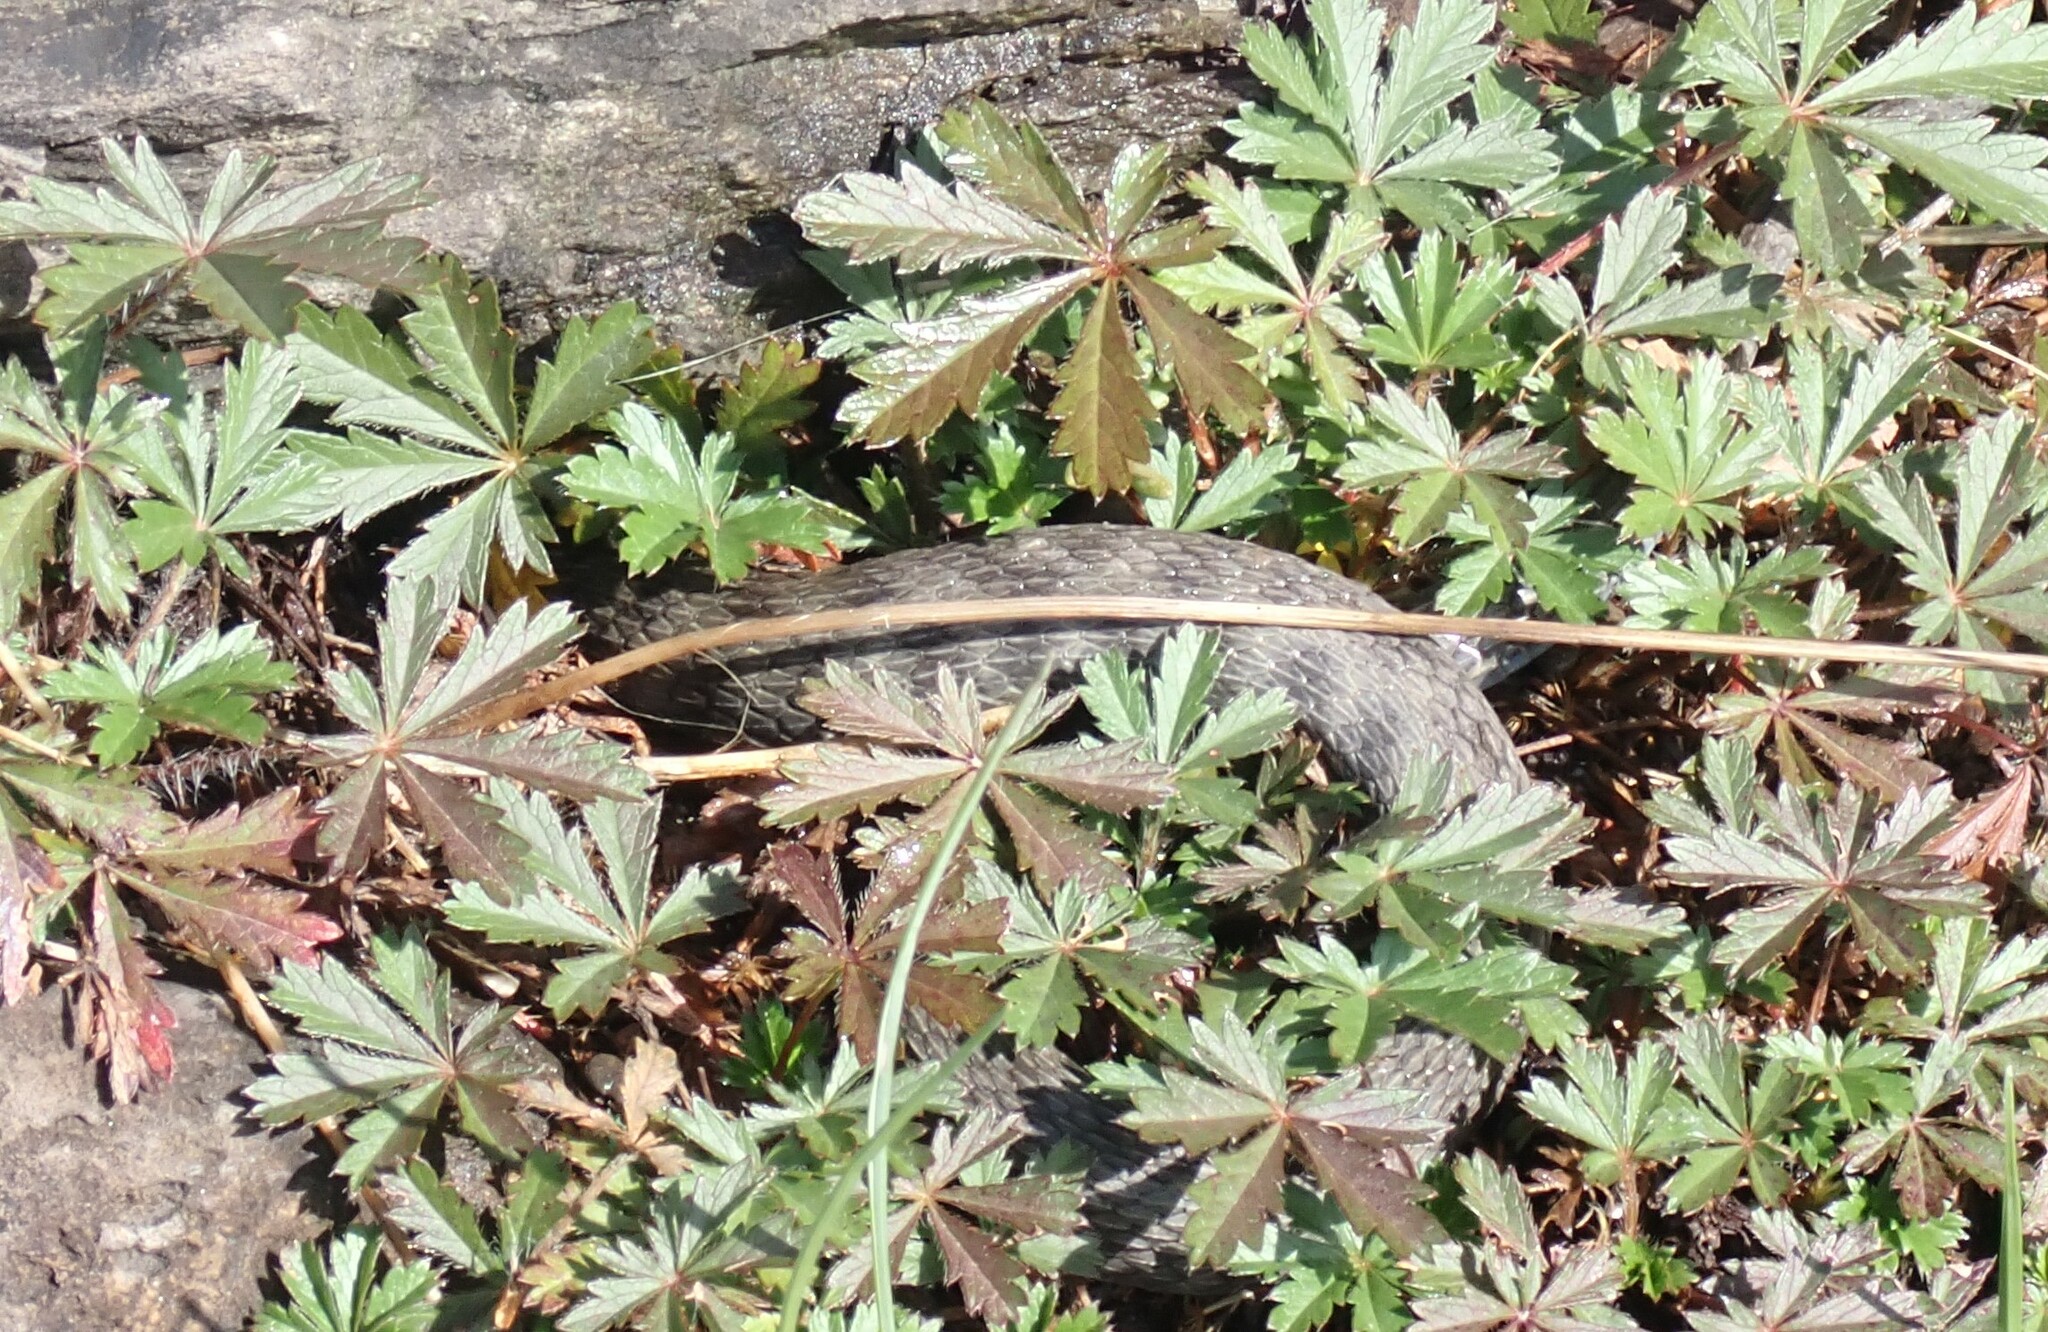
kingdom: Animalia
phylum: Chordata
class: Squamata
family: Colubridae
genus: Natrix
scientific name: Natrix tessellata
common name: Dice snake
